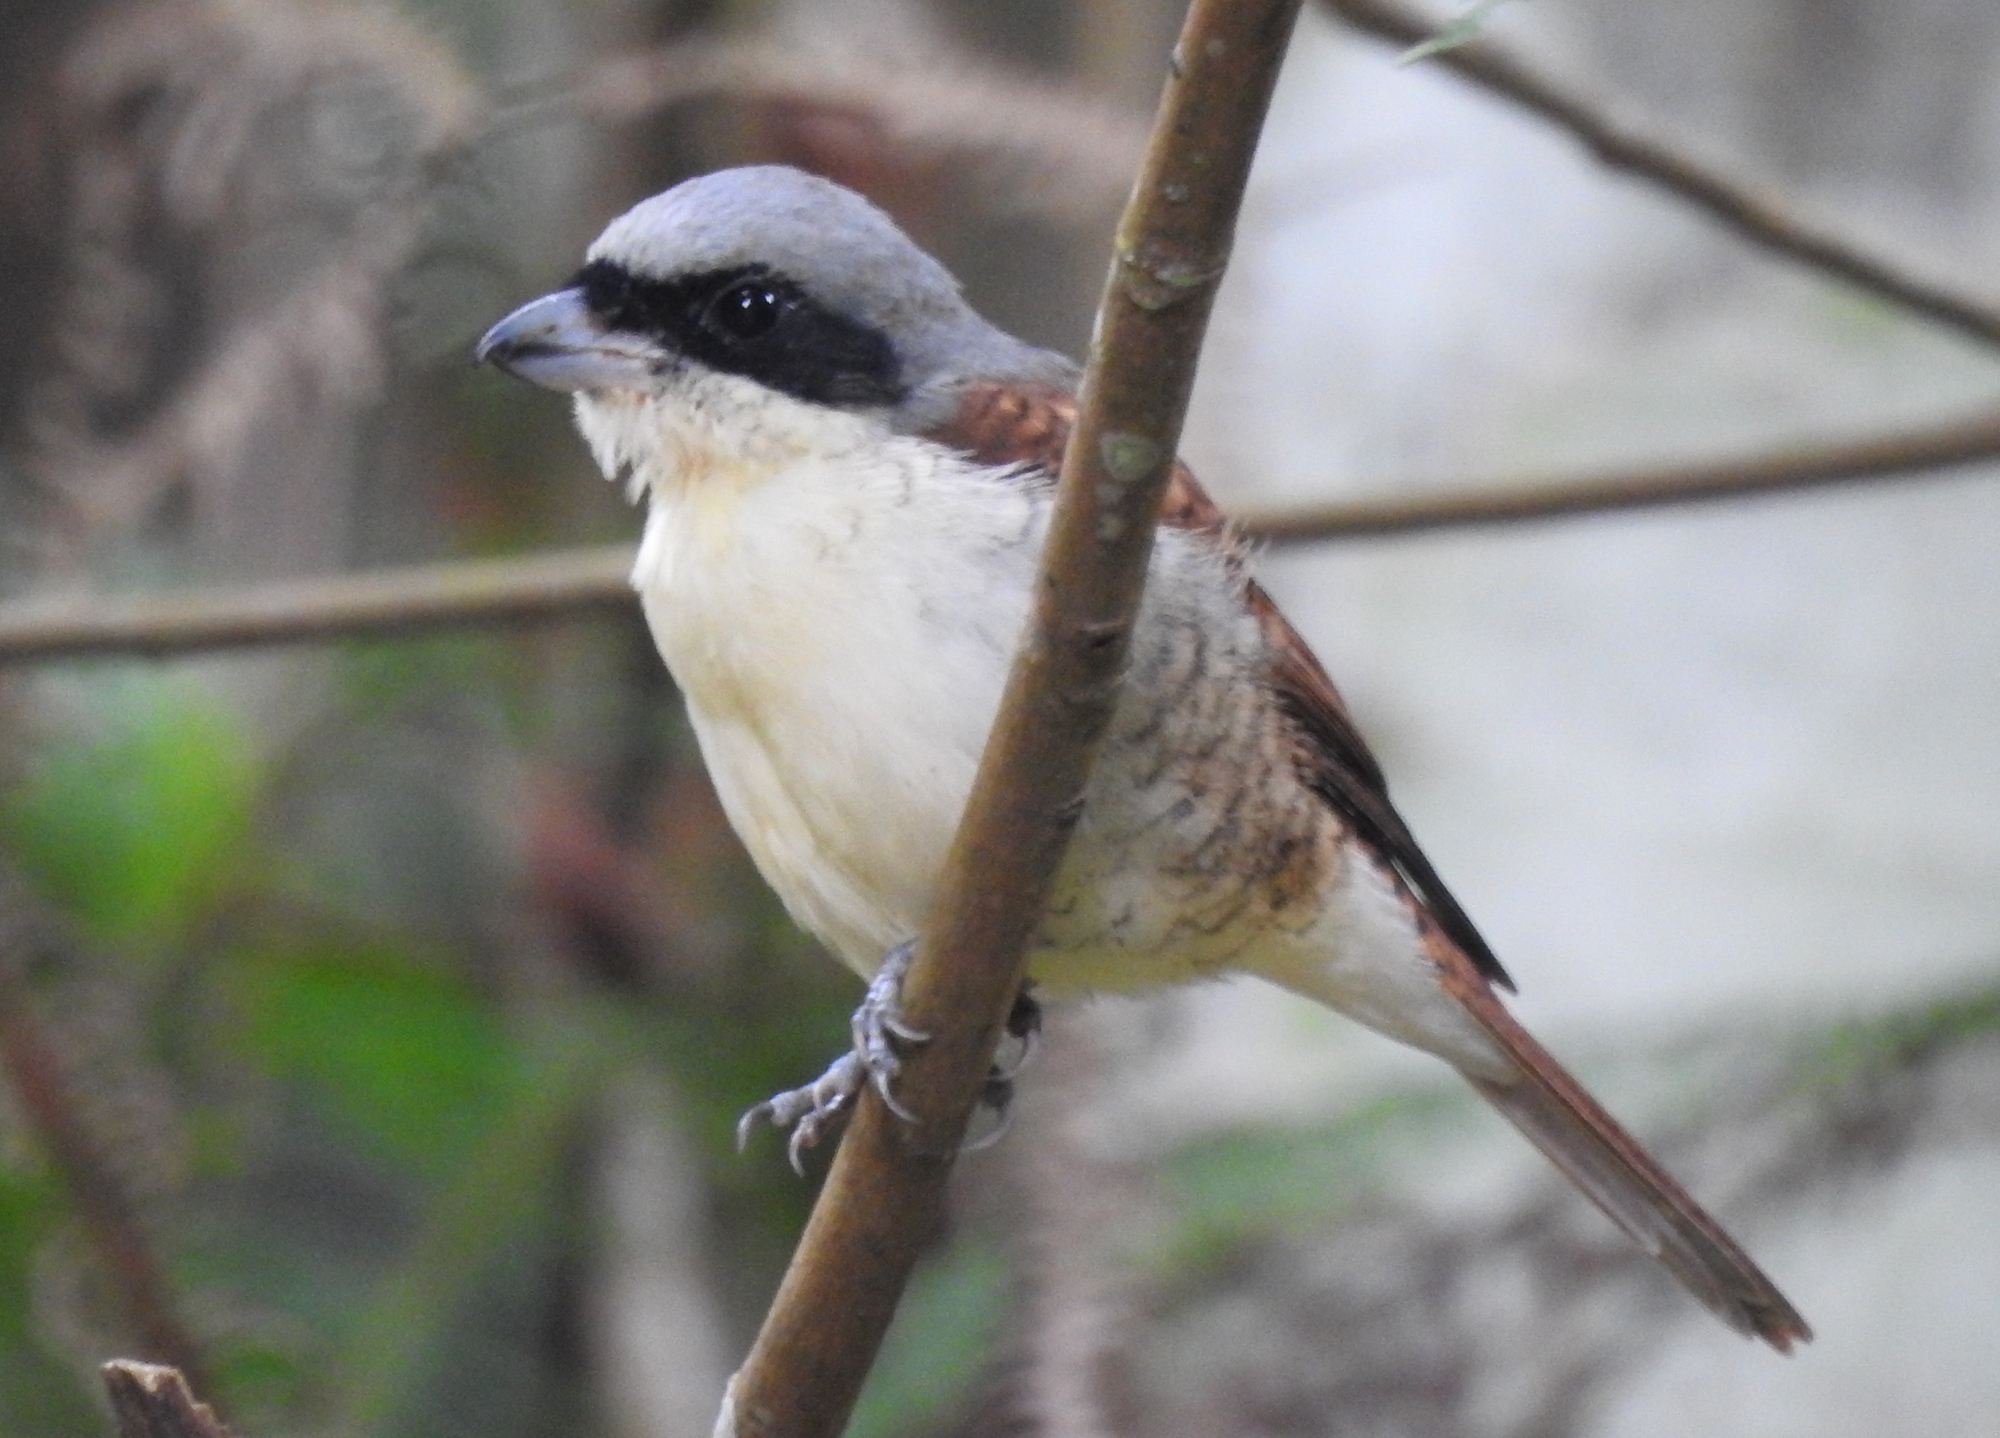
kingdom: Animalia
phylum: Chordata
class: Aves
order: Passeriformes
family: Laniidae
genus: Lanius
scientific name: Lanius tigrinus
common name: Tiger shrike
